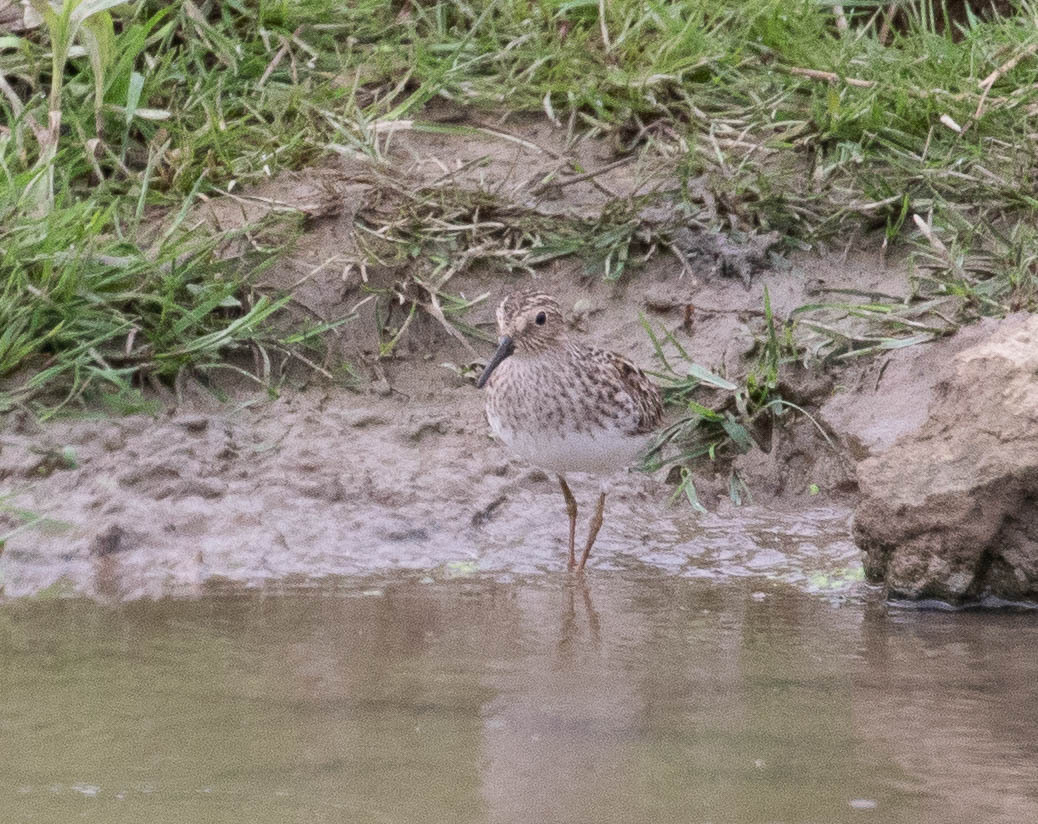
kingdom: Animalia
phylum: Chordata
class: Aves
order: Charadriiformes
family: Scolopacidae
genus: Calidris
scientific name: Calidris melanotos
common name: Pectoral sandpiper
